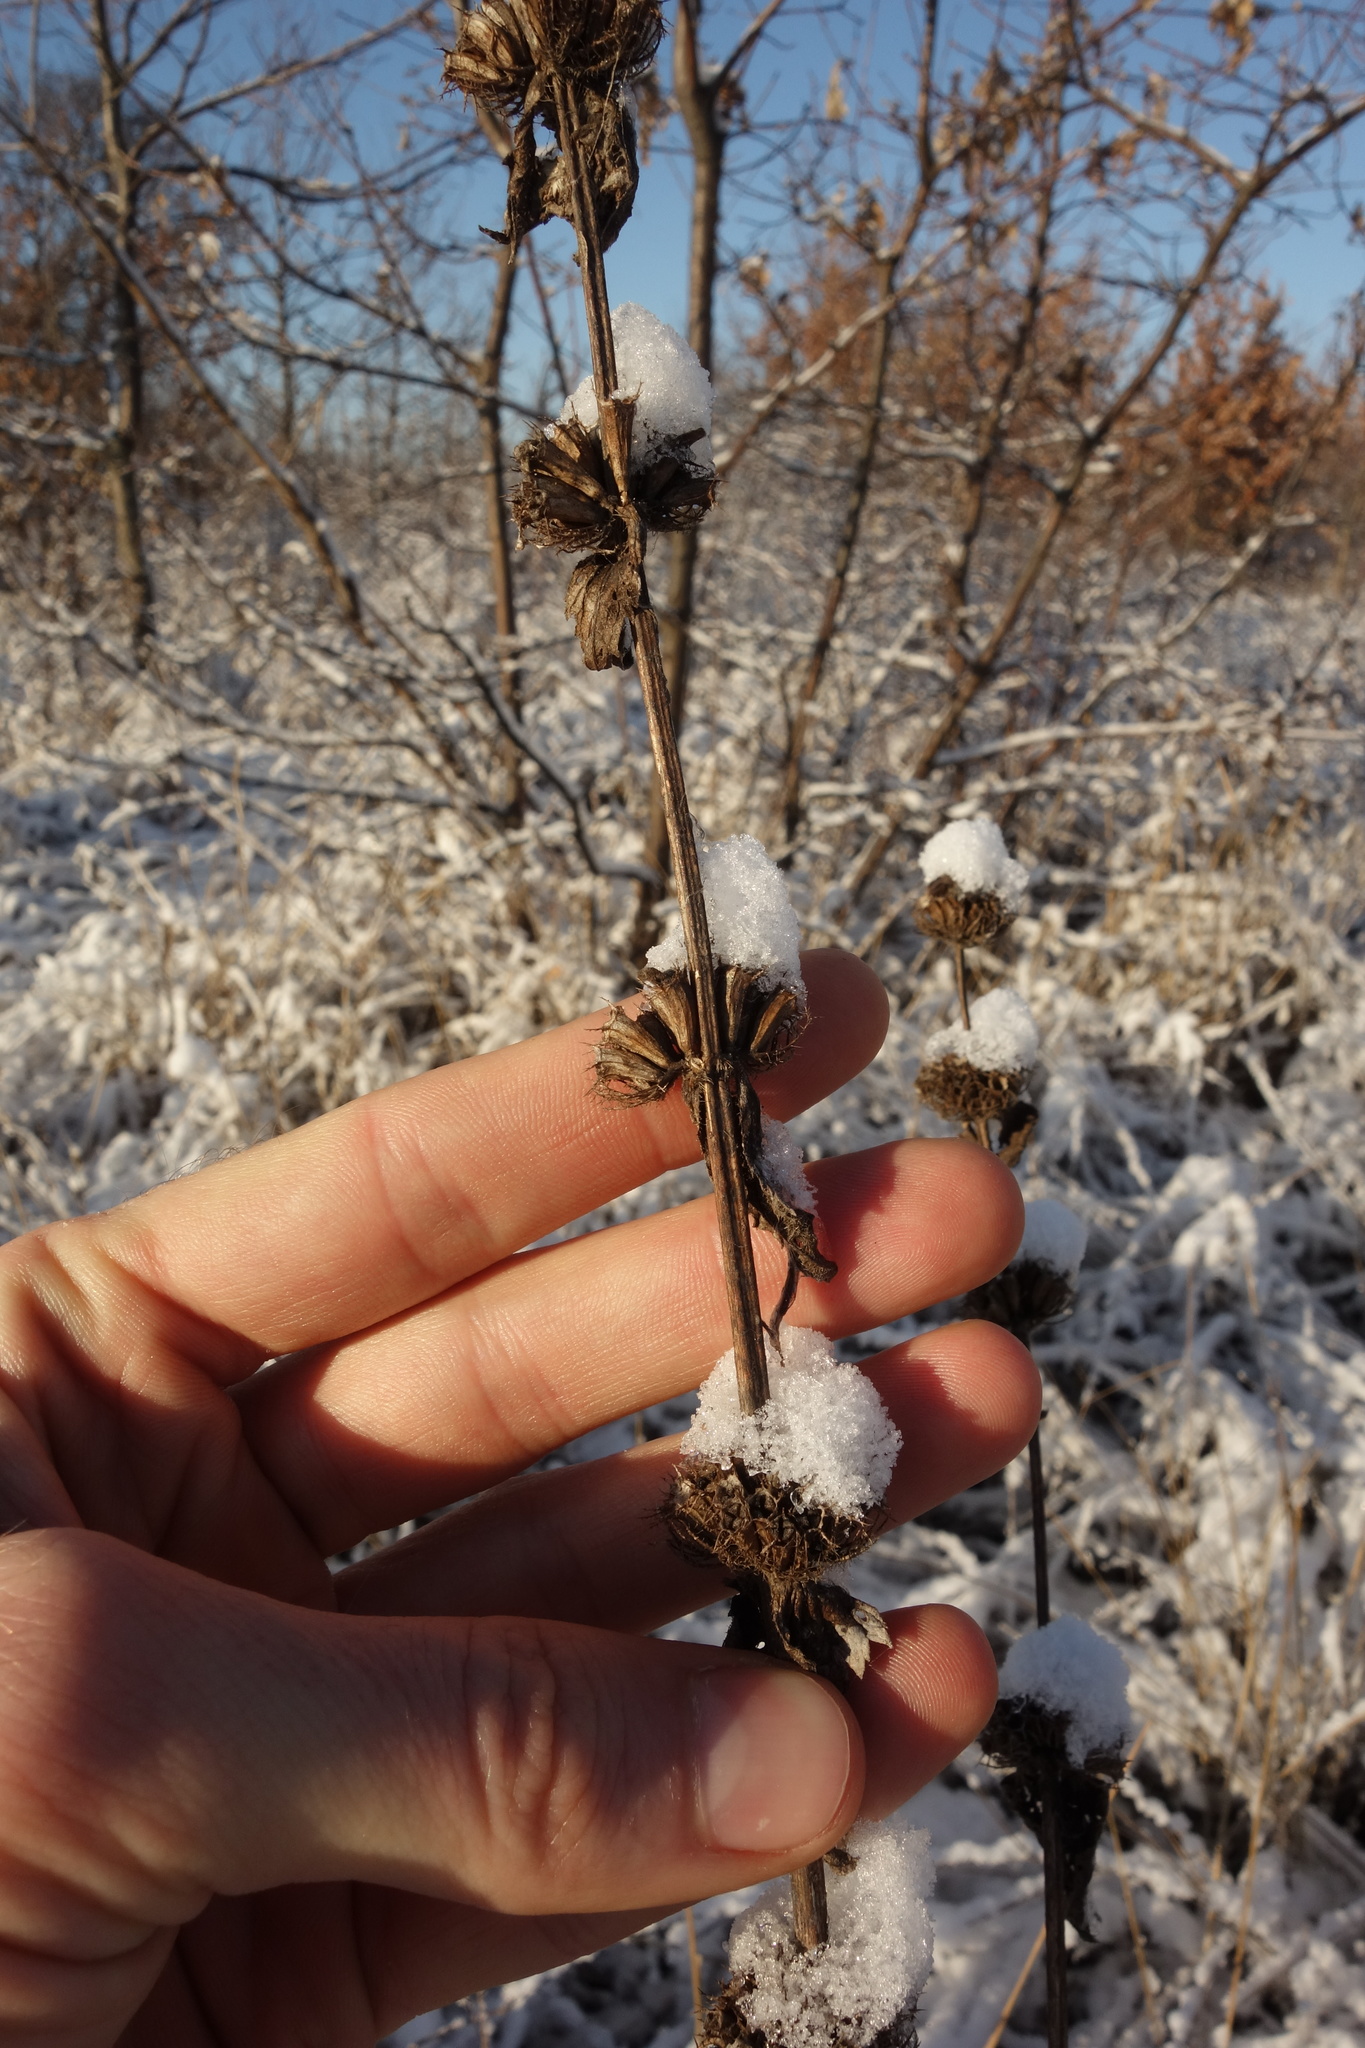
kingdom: Plantae
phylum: Tracheophyta
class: Magnoliopsida
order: Lamiales
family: Lamiaceae
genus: Phlomoides
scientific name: Phlomoides tuberosa
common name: Tuberous jerusalem sage
